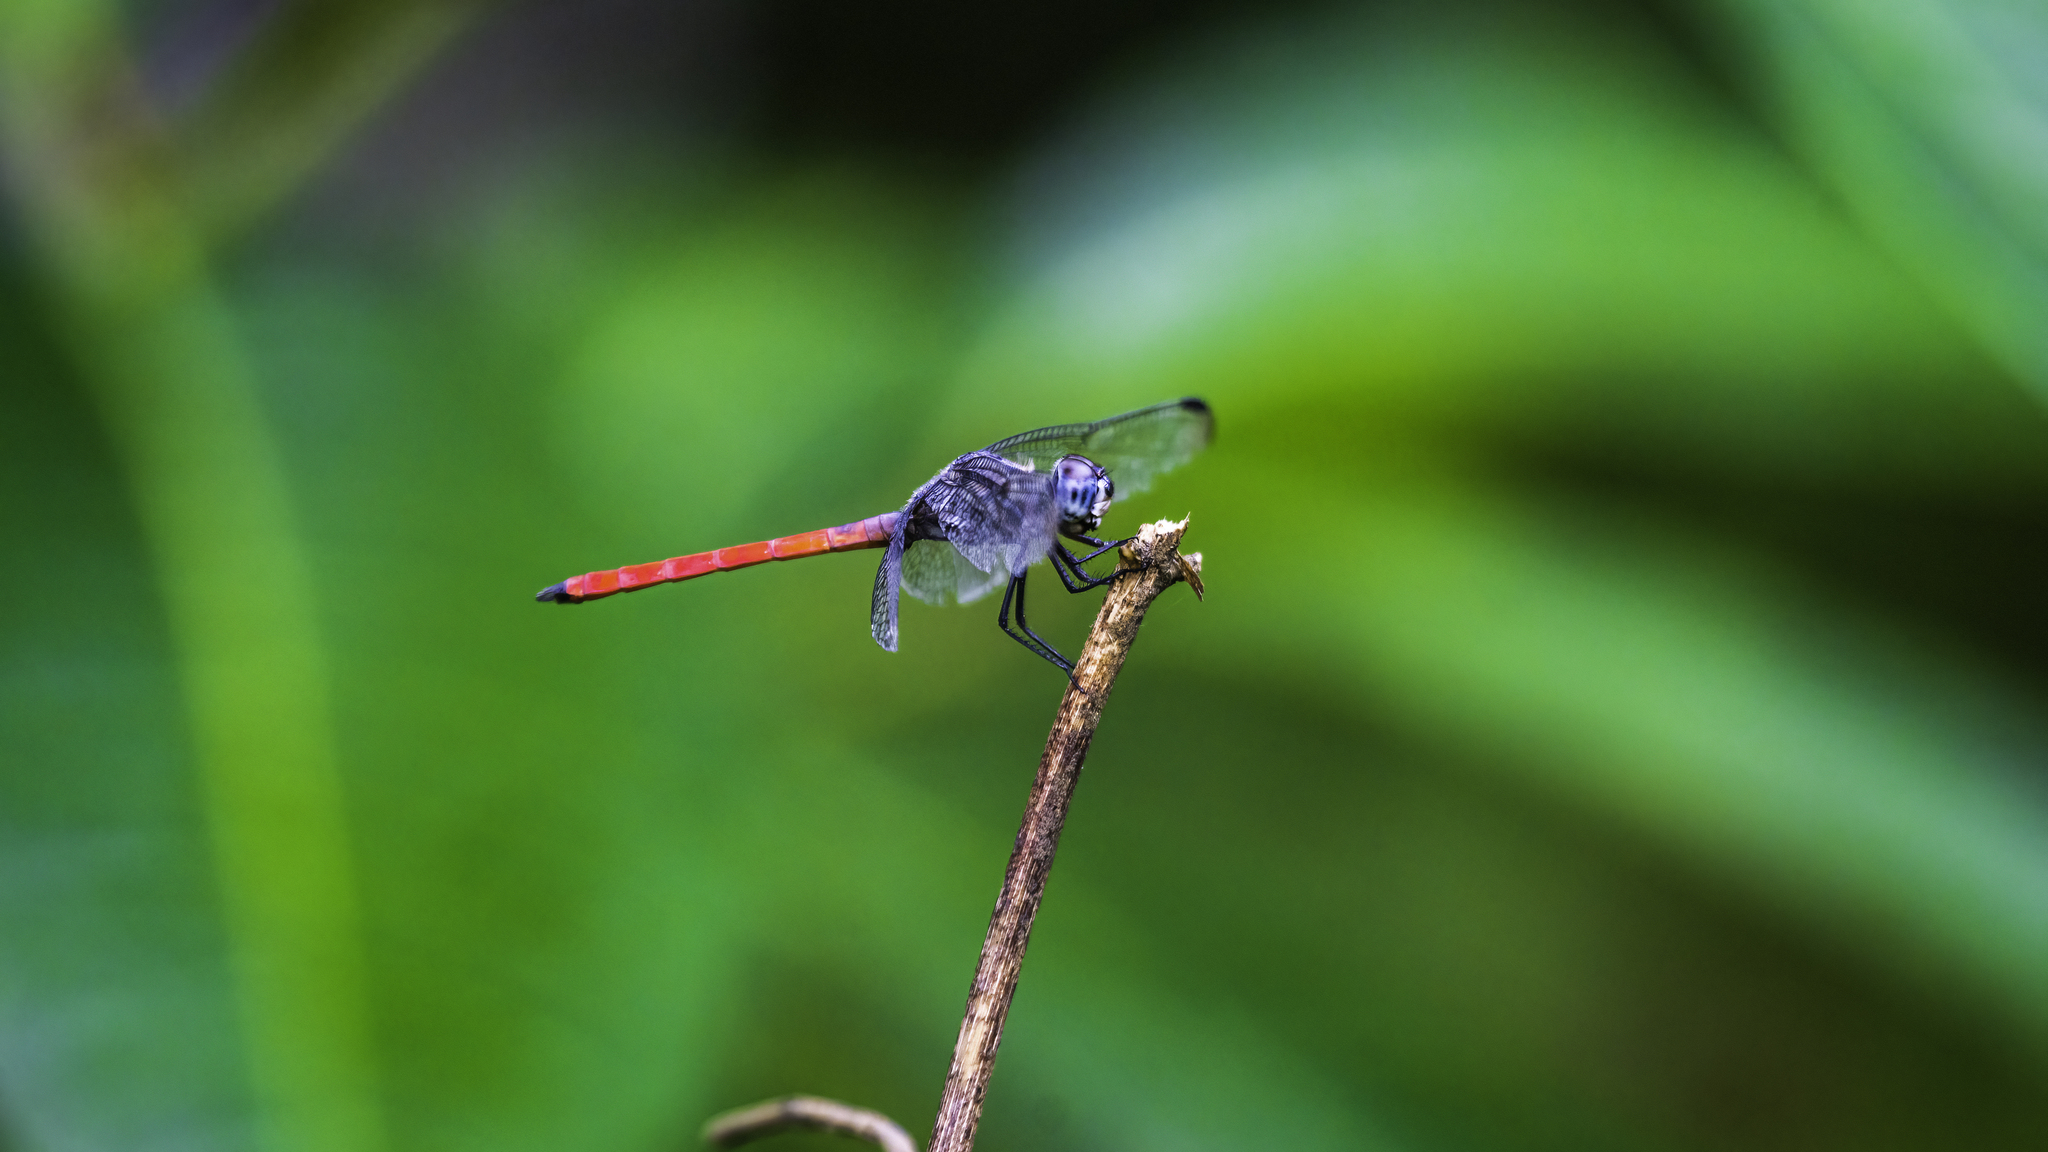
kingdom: Animalia
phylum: Arthropoda
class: Insecta
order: Odonata
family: Libellulidae
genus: Lathrecista
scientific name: Lathrecista asiatica
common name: Scarlet grenadier
